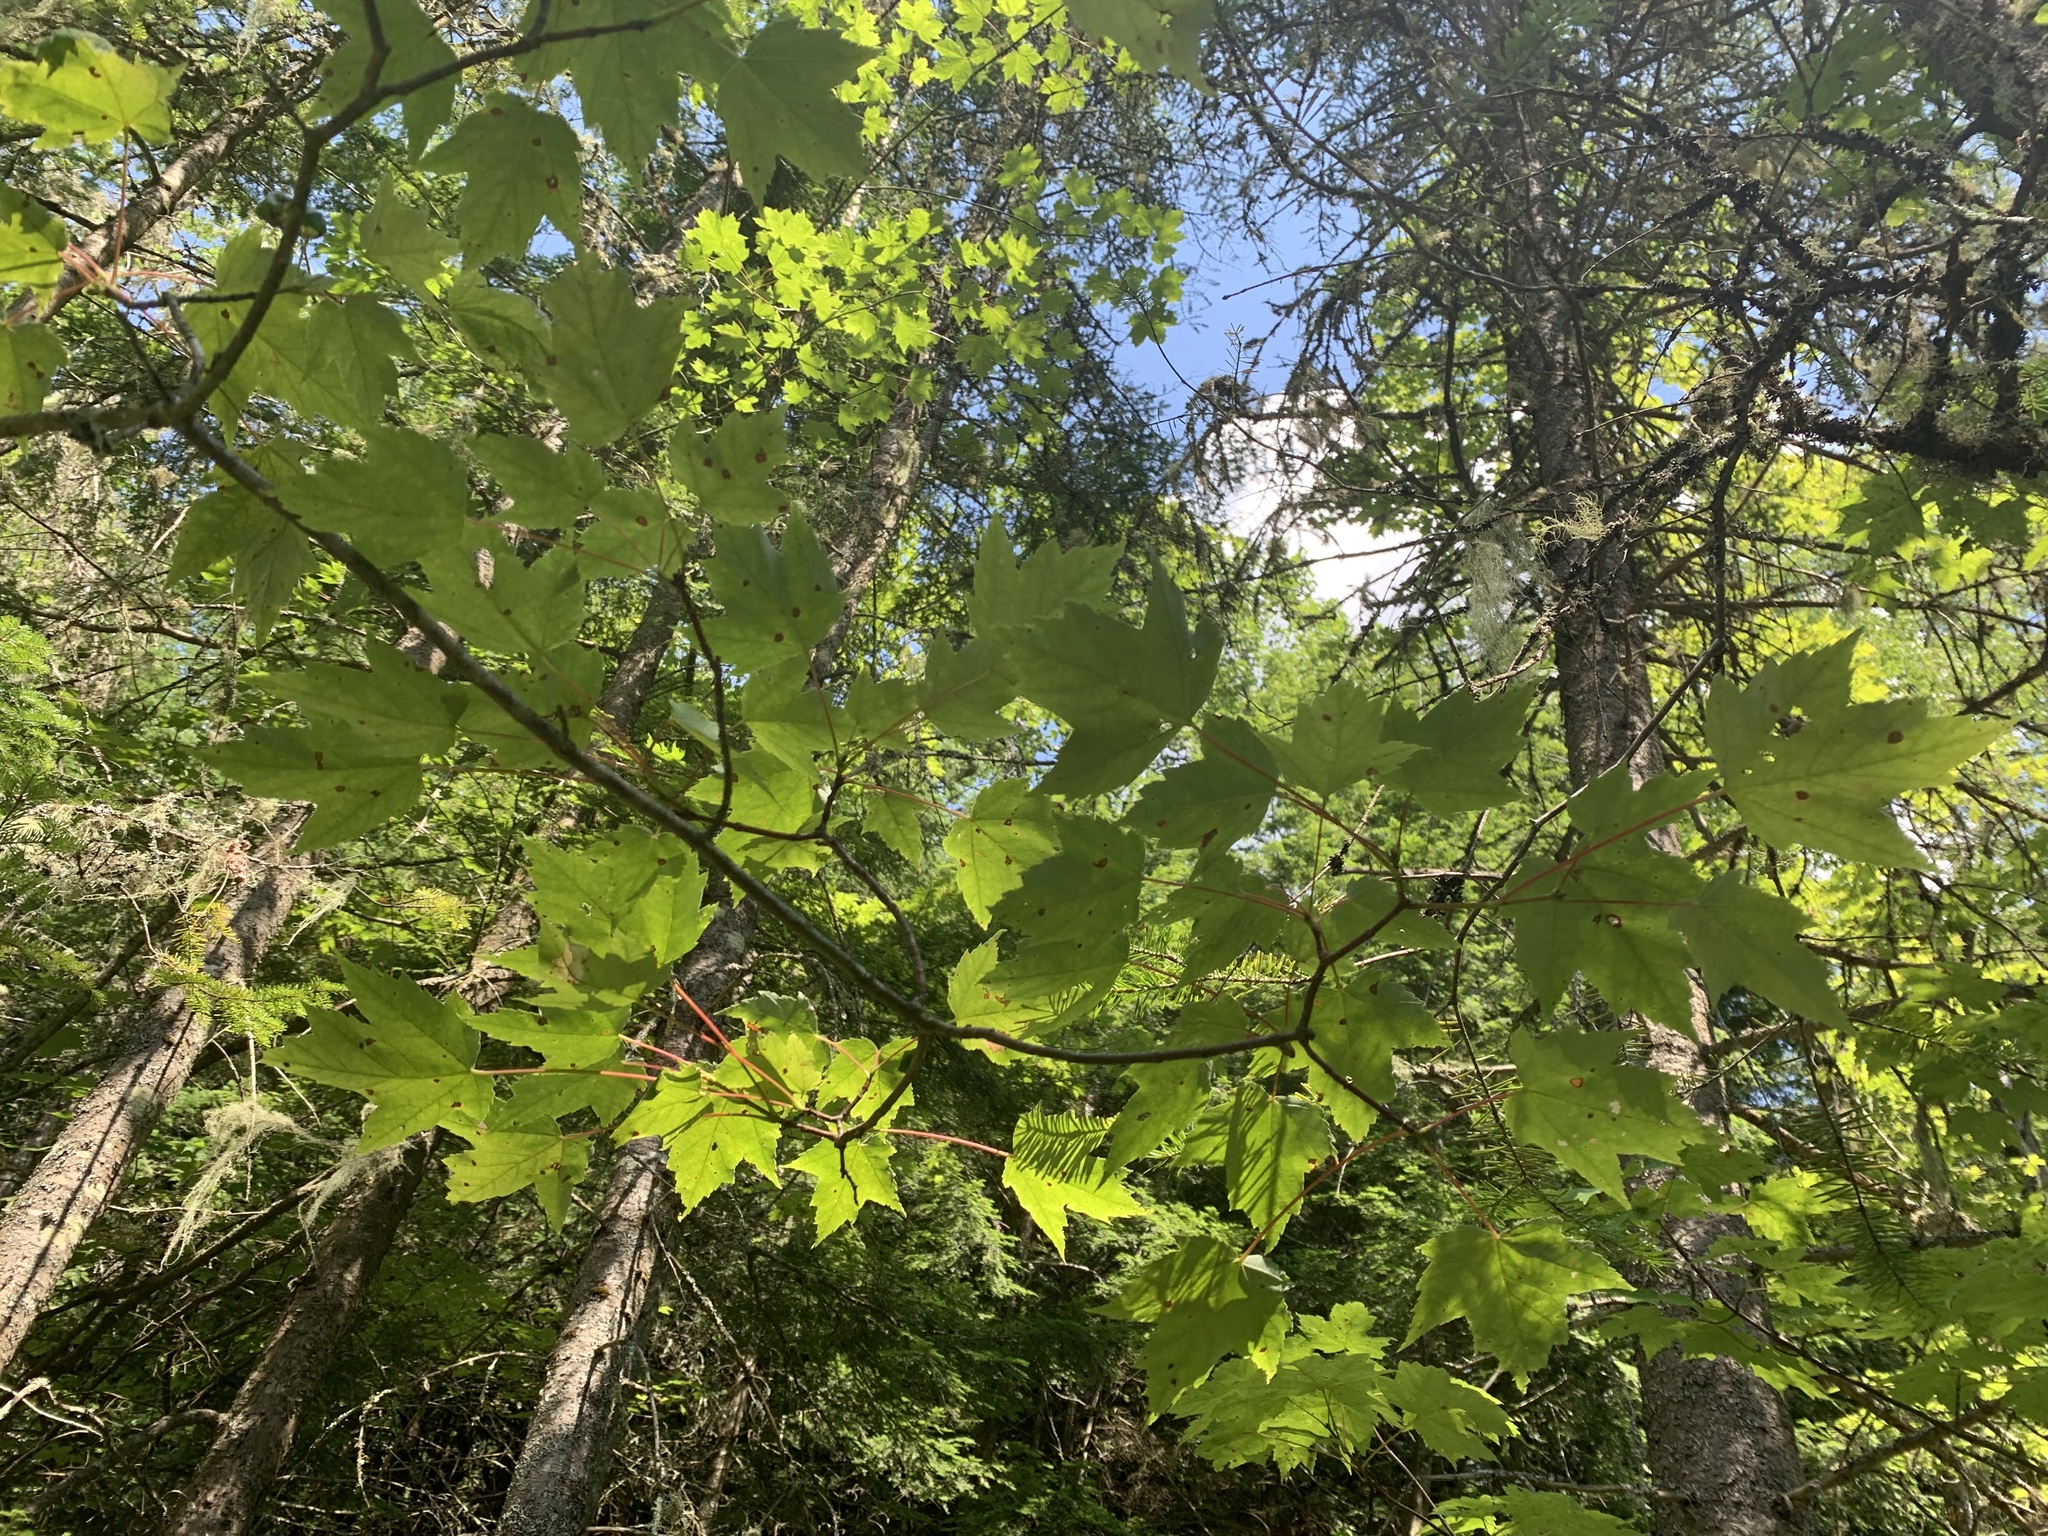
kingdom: Plantae
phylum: Tracheophyta
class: Magnoliopsida
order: Sapindales
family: Sapindaceae
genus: Acer
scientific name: Acer rubrum
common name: Red maple
